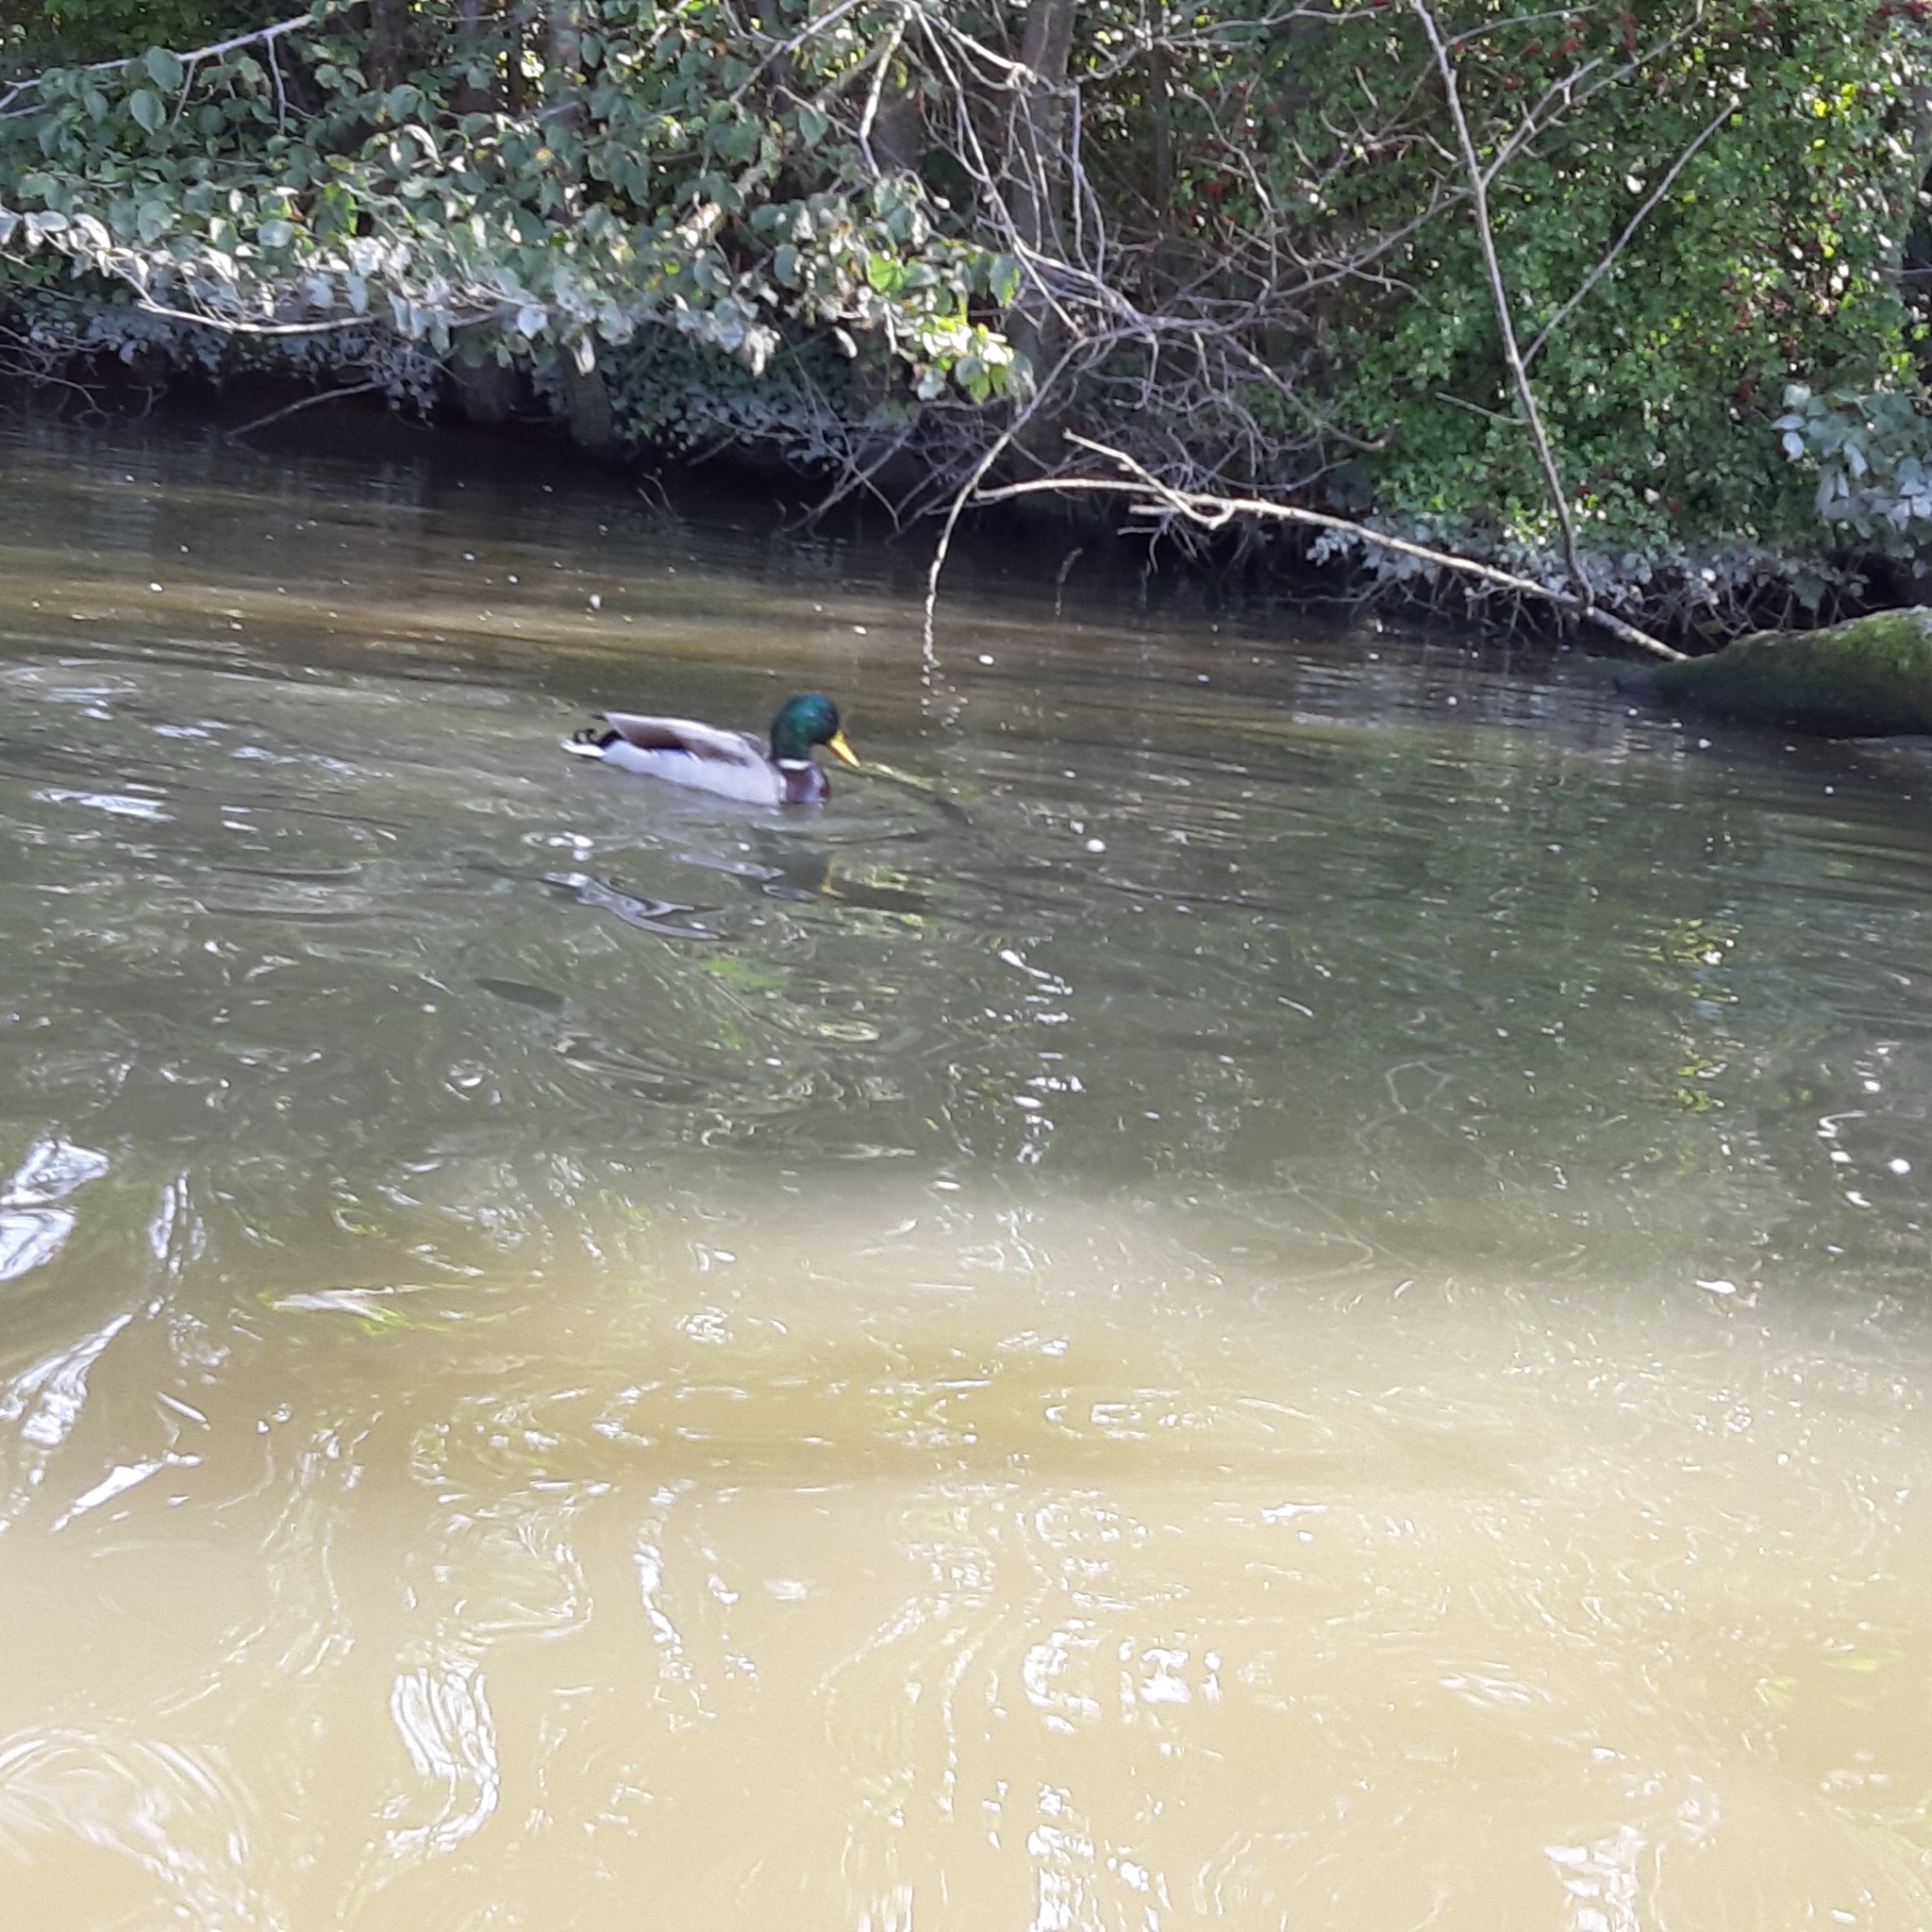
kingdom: Animalia
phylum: Chordata
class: Aves
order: Anseriformes
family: Anatidae
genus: Anas
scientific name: Anas platyrhynchos
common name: Mallard
